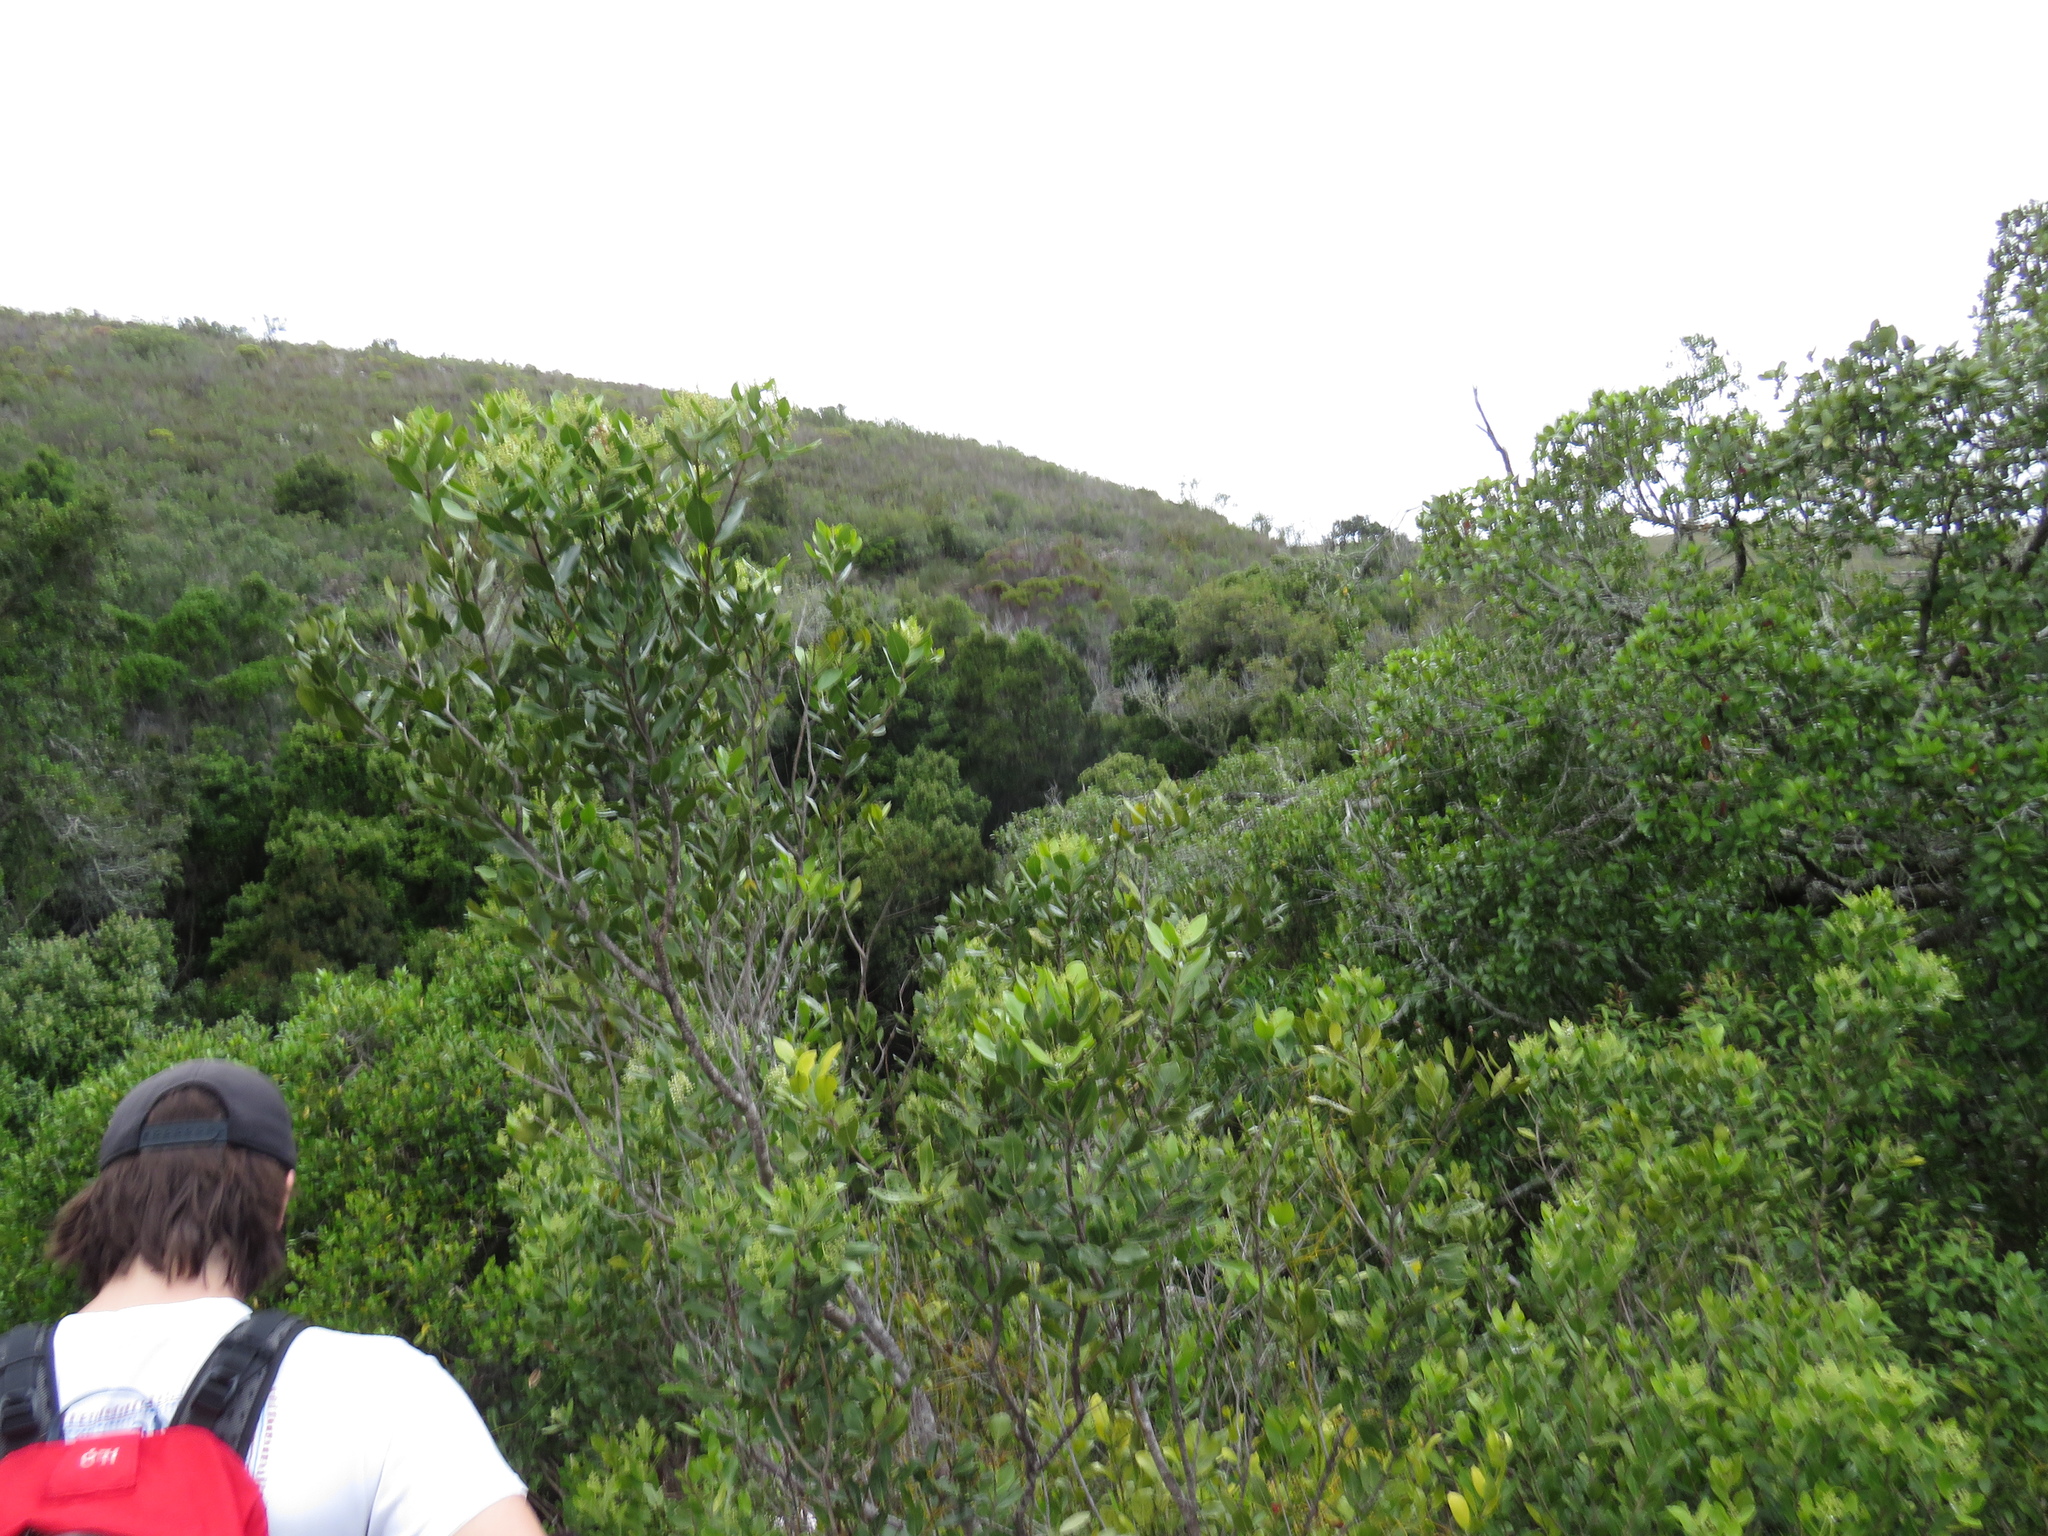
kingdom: Plantae
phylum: Tracheophyta
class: Magnoliopsida
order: Lamiales
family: Oleaceae
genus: Olea
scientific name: Olea capensis
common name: Black ironwood
